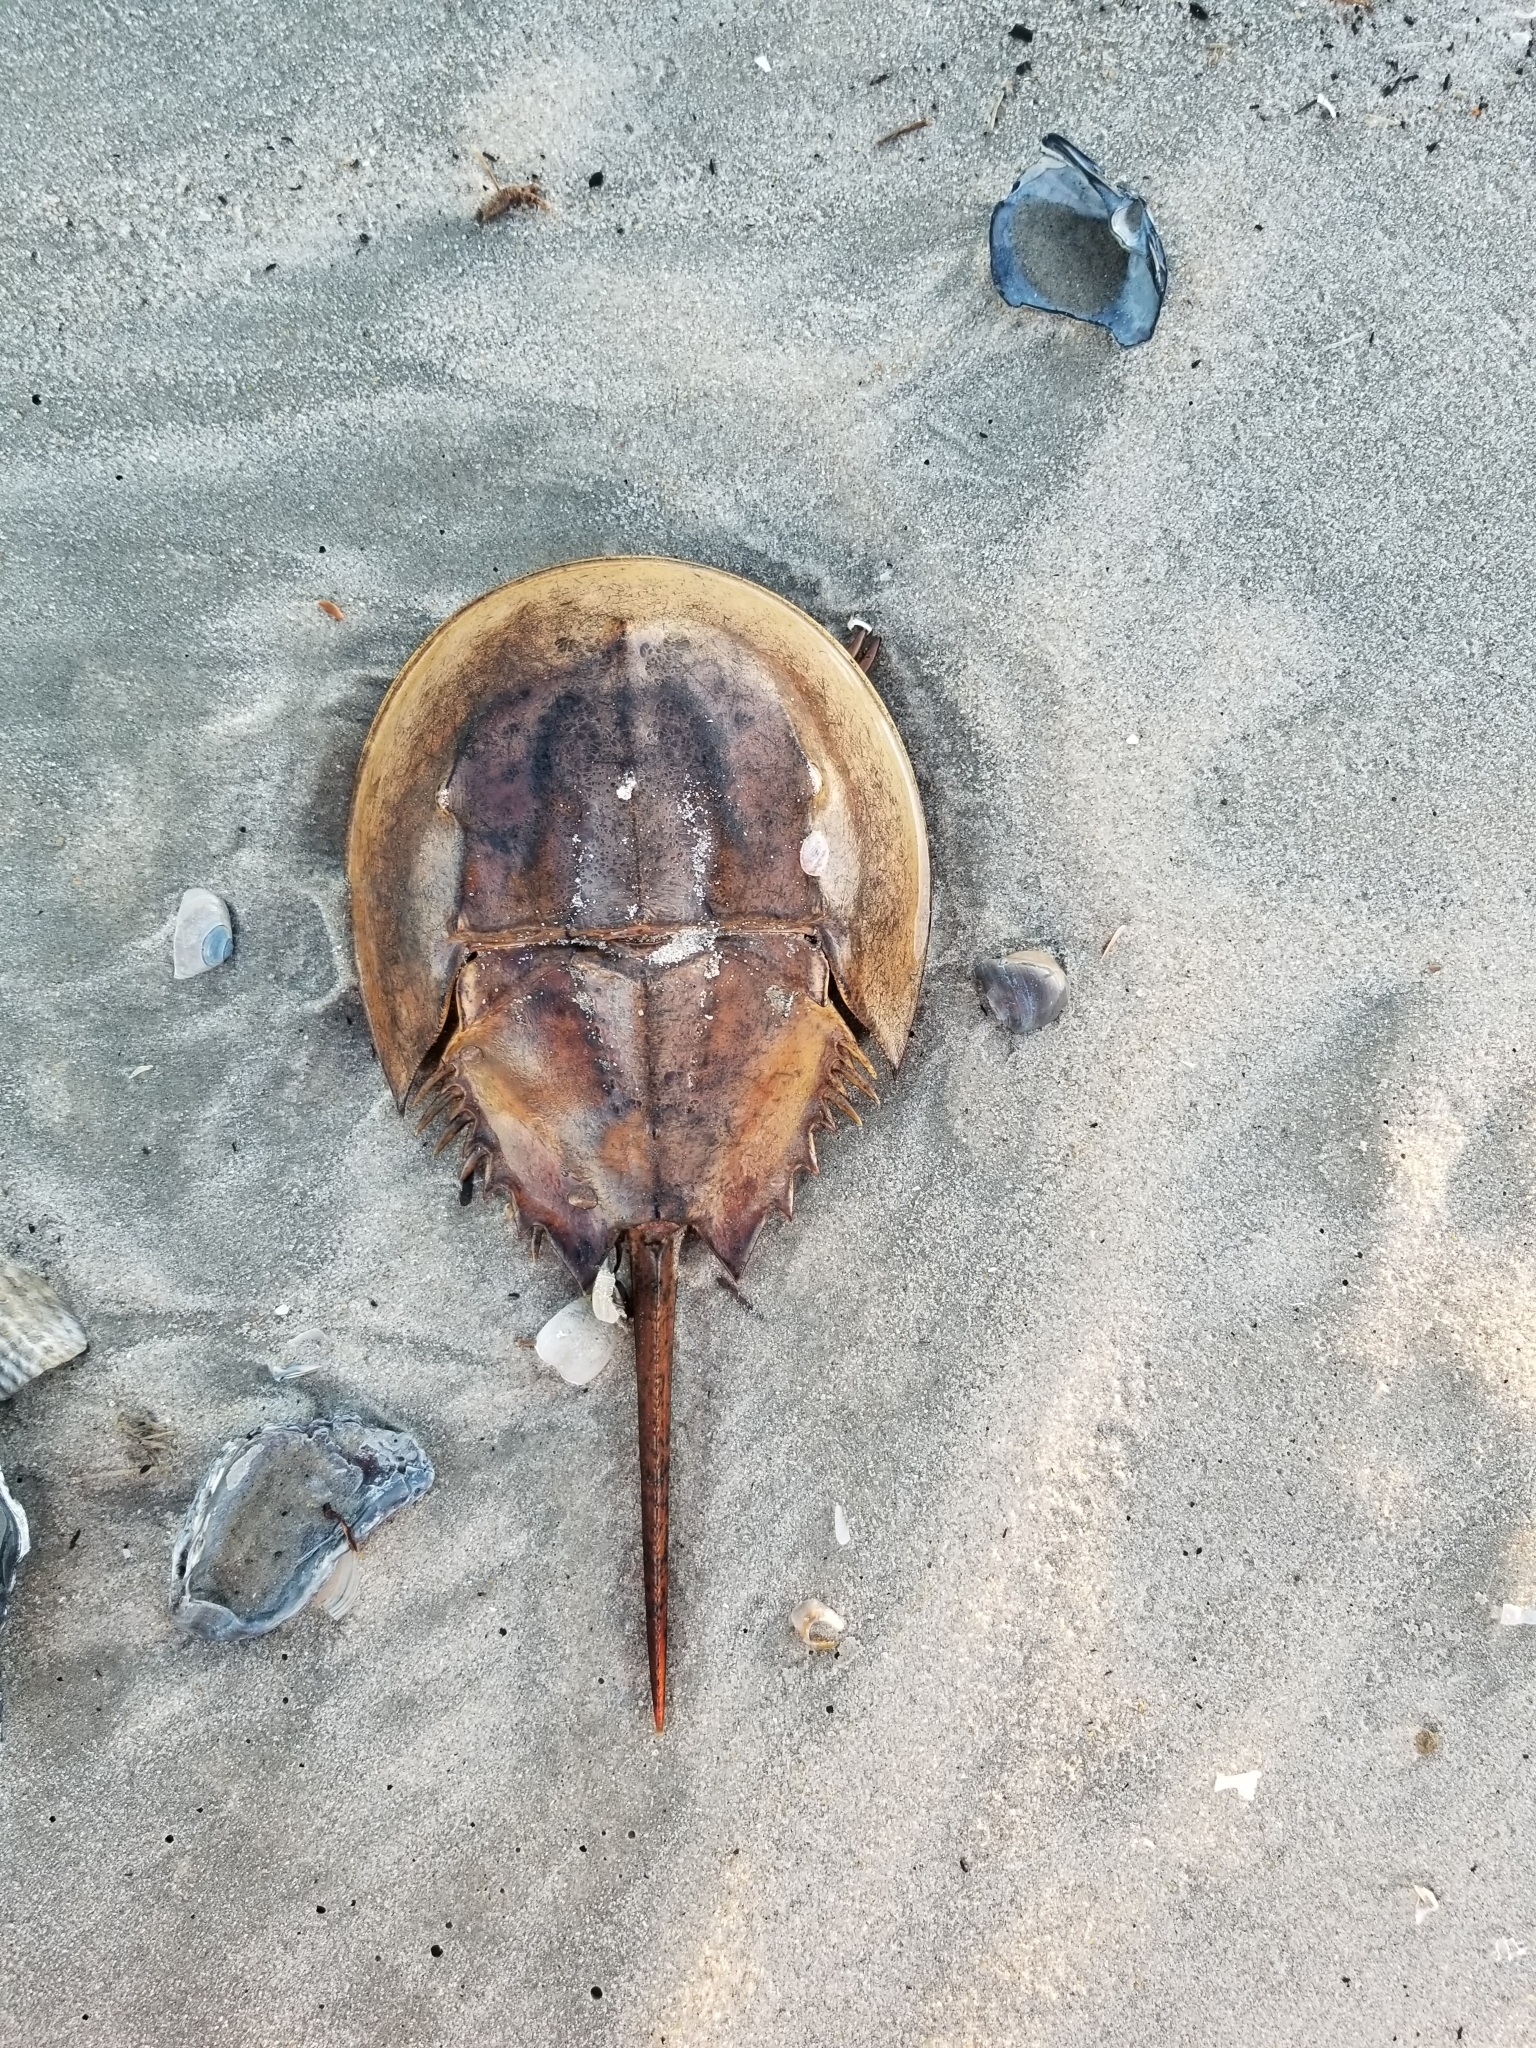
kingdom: Animalia
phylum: Arthropoda
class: Merostomata
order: Xiphosurida
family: Limulidae
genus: Limulus
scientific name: Limulus polyphemus
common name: Horseshoe crab
